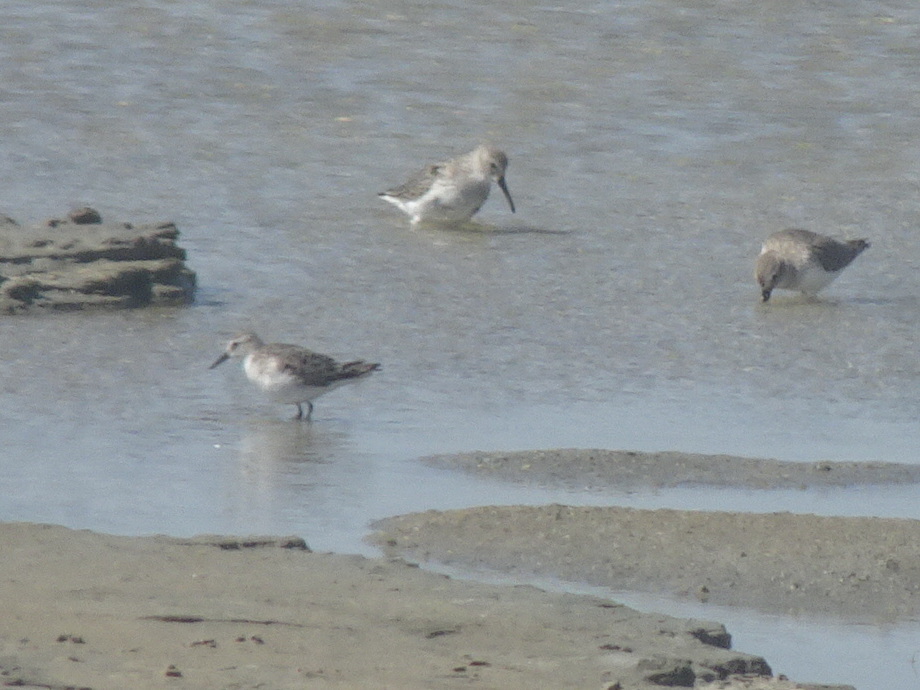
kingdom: Animalia
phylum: Chordata
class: Aves
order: Charadriiformes
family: Scolopacidae
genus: Calidris
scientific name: Calidris minuta
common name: Little stint
